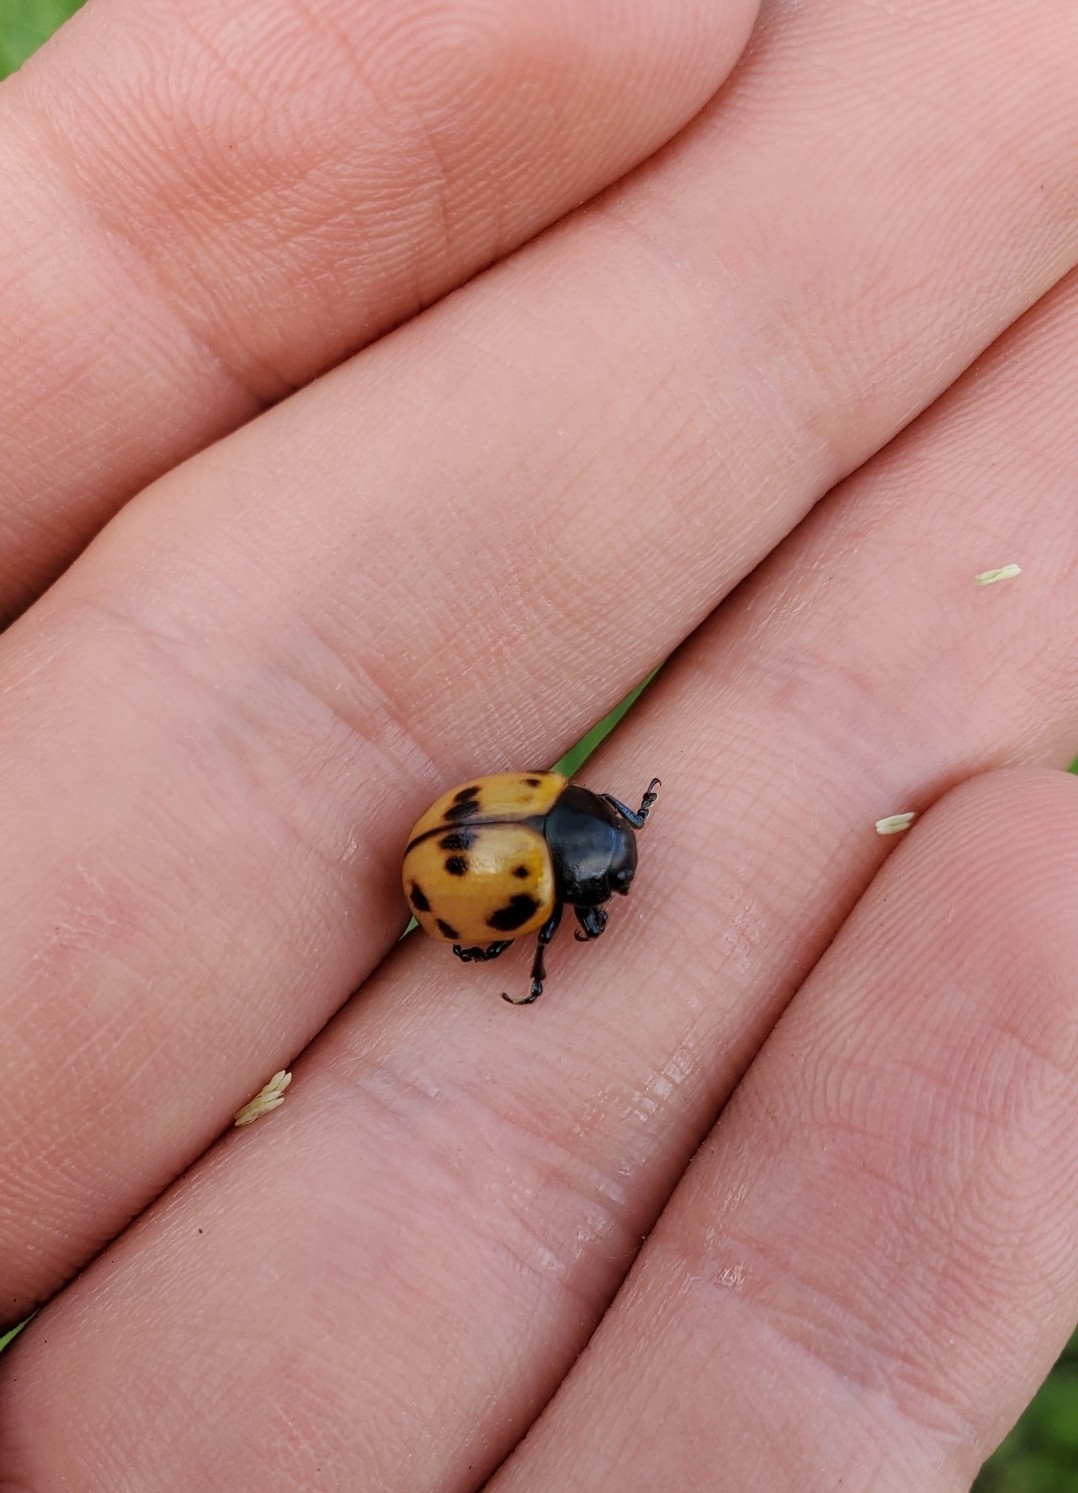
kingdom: Animalia
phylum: Arthropoda
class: Insecta
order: Coleoptera
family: Chrysomelidae
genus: Labidomera
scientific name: Labidomera clivicollis
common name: Swamp milkweed leaf beetle
